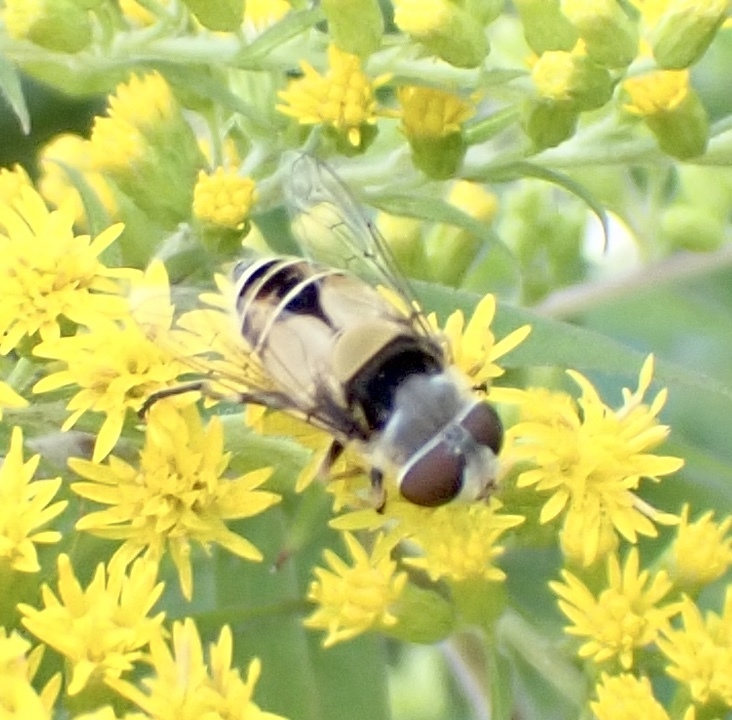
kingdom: Animalia
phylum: Arthropoda
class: Insecta
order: Diptera
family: Syrphidae
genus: Palpada
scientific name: Palpada pusilla
